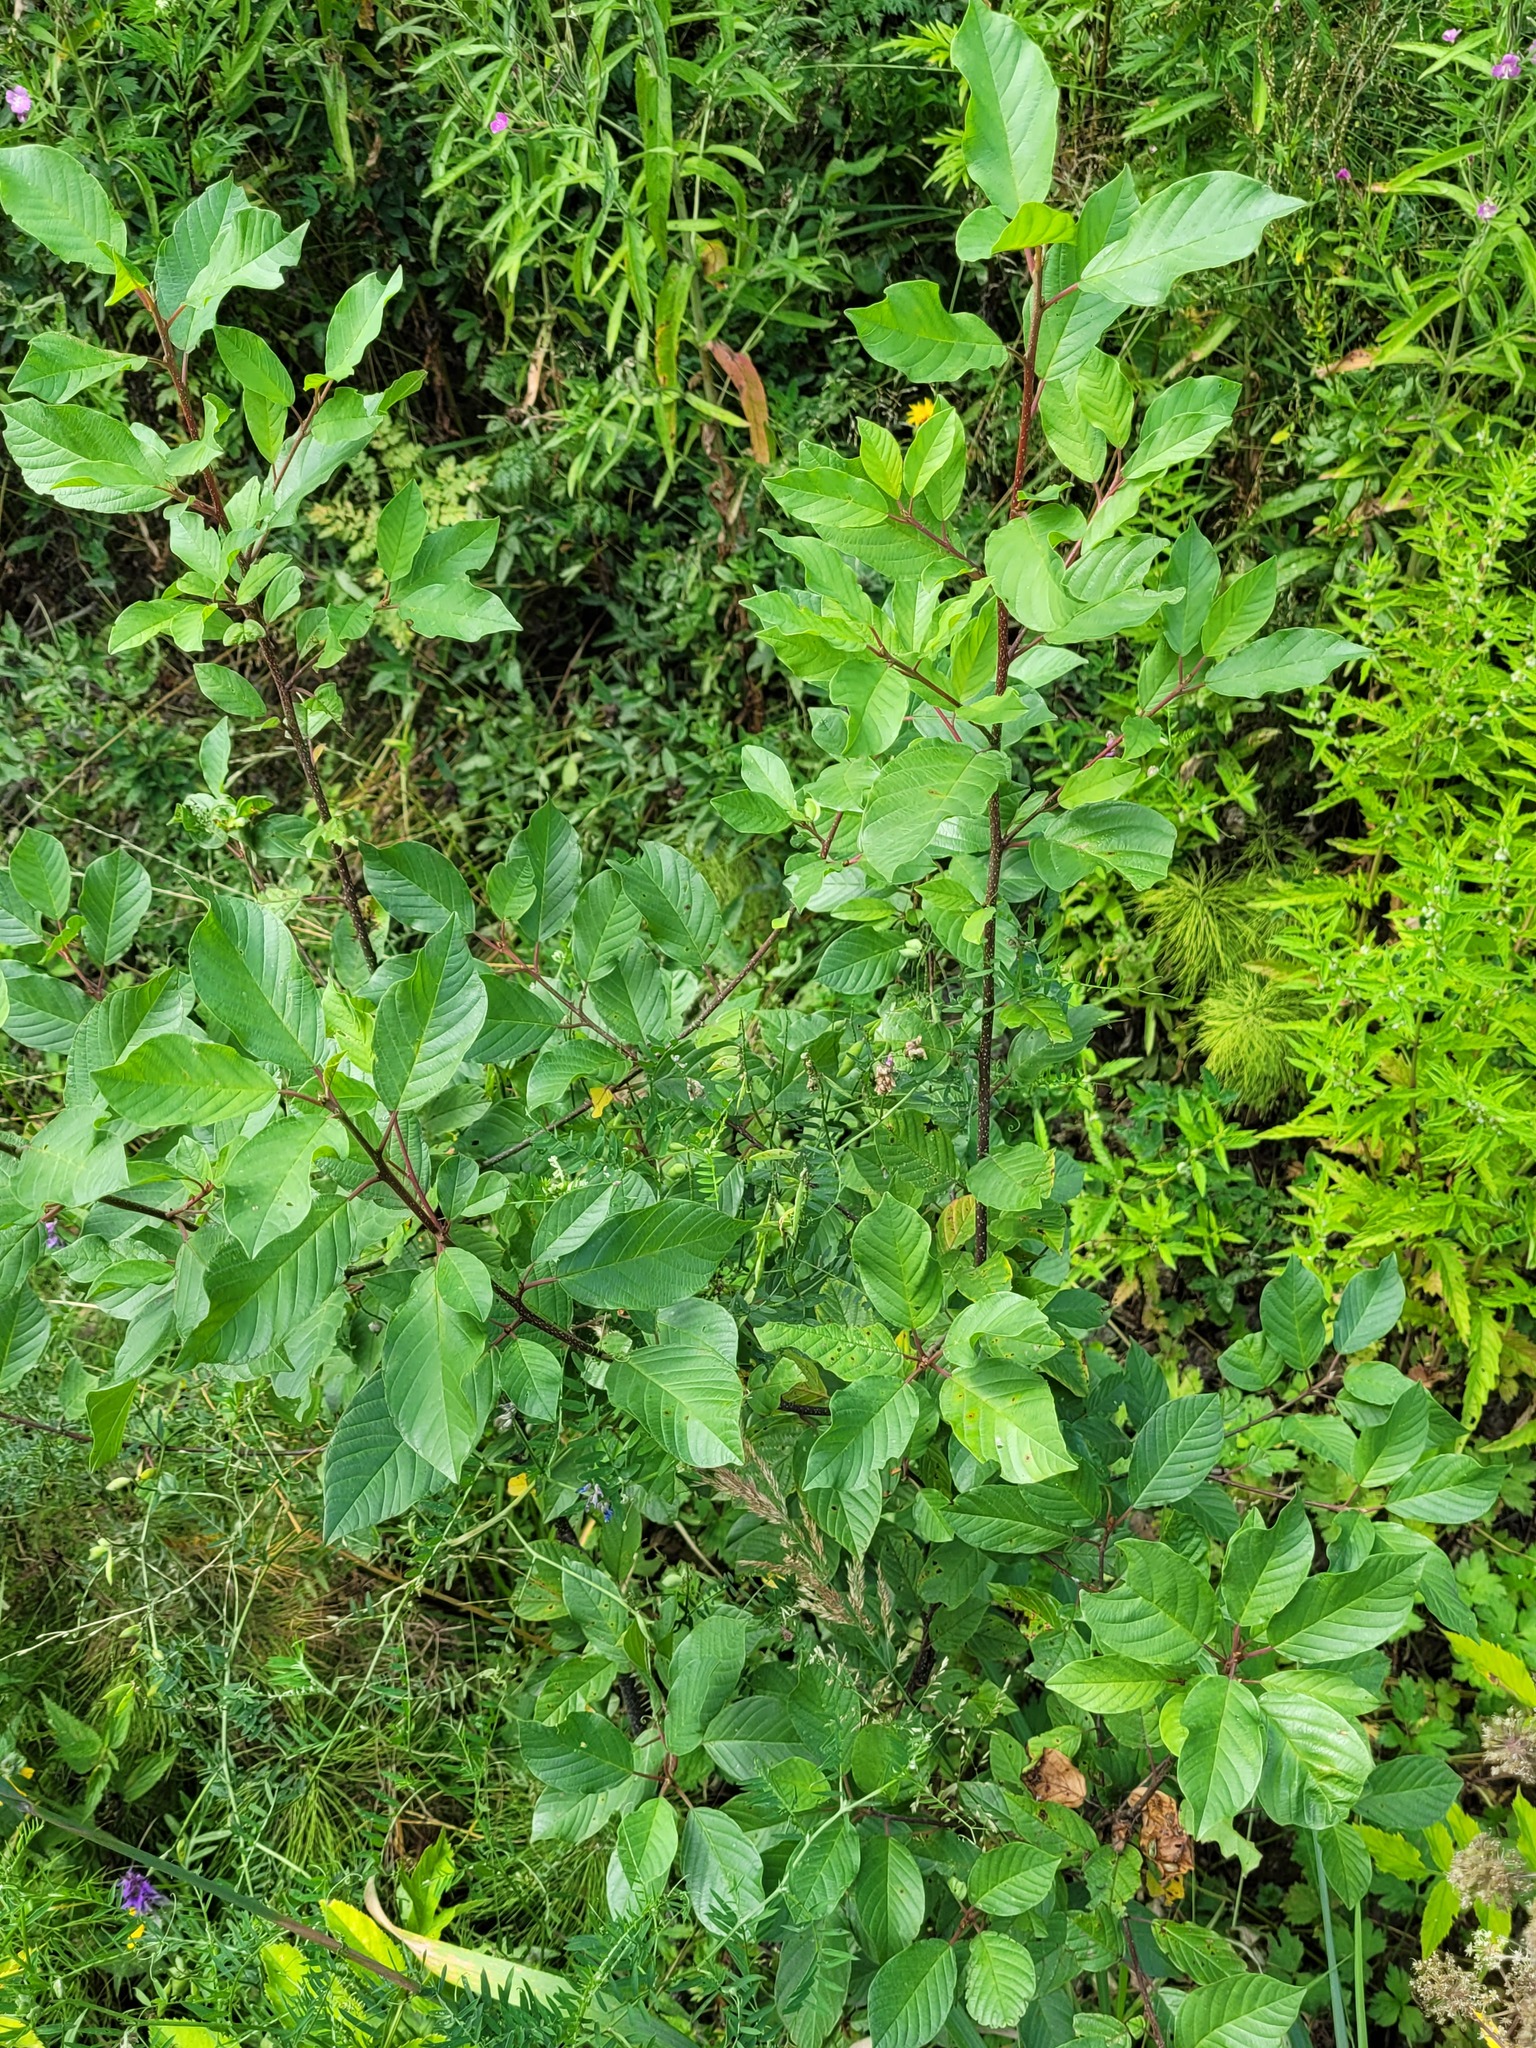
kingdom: Plantae
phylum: Tracheophyta
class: Magnoliopsida
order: Rosales
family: Rhamnaceae
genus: Frangula
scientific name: Frangula alnus
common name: Alder buckthorn
